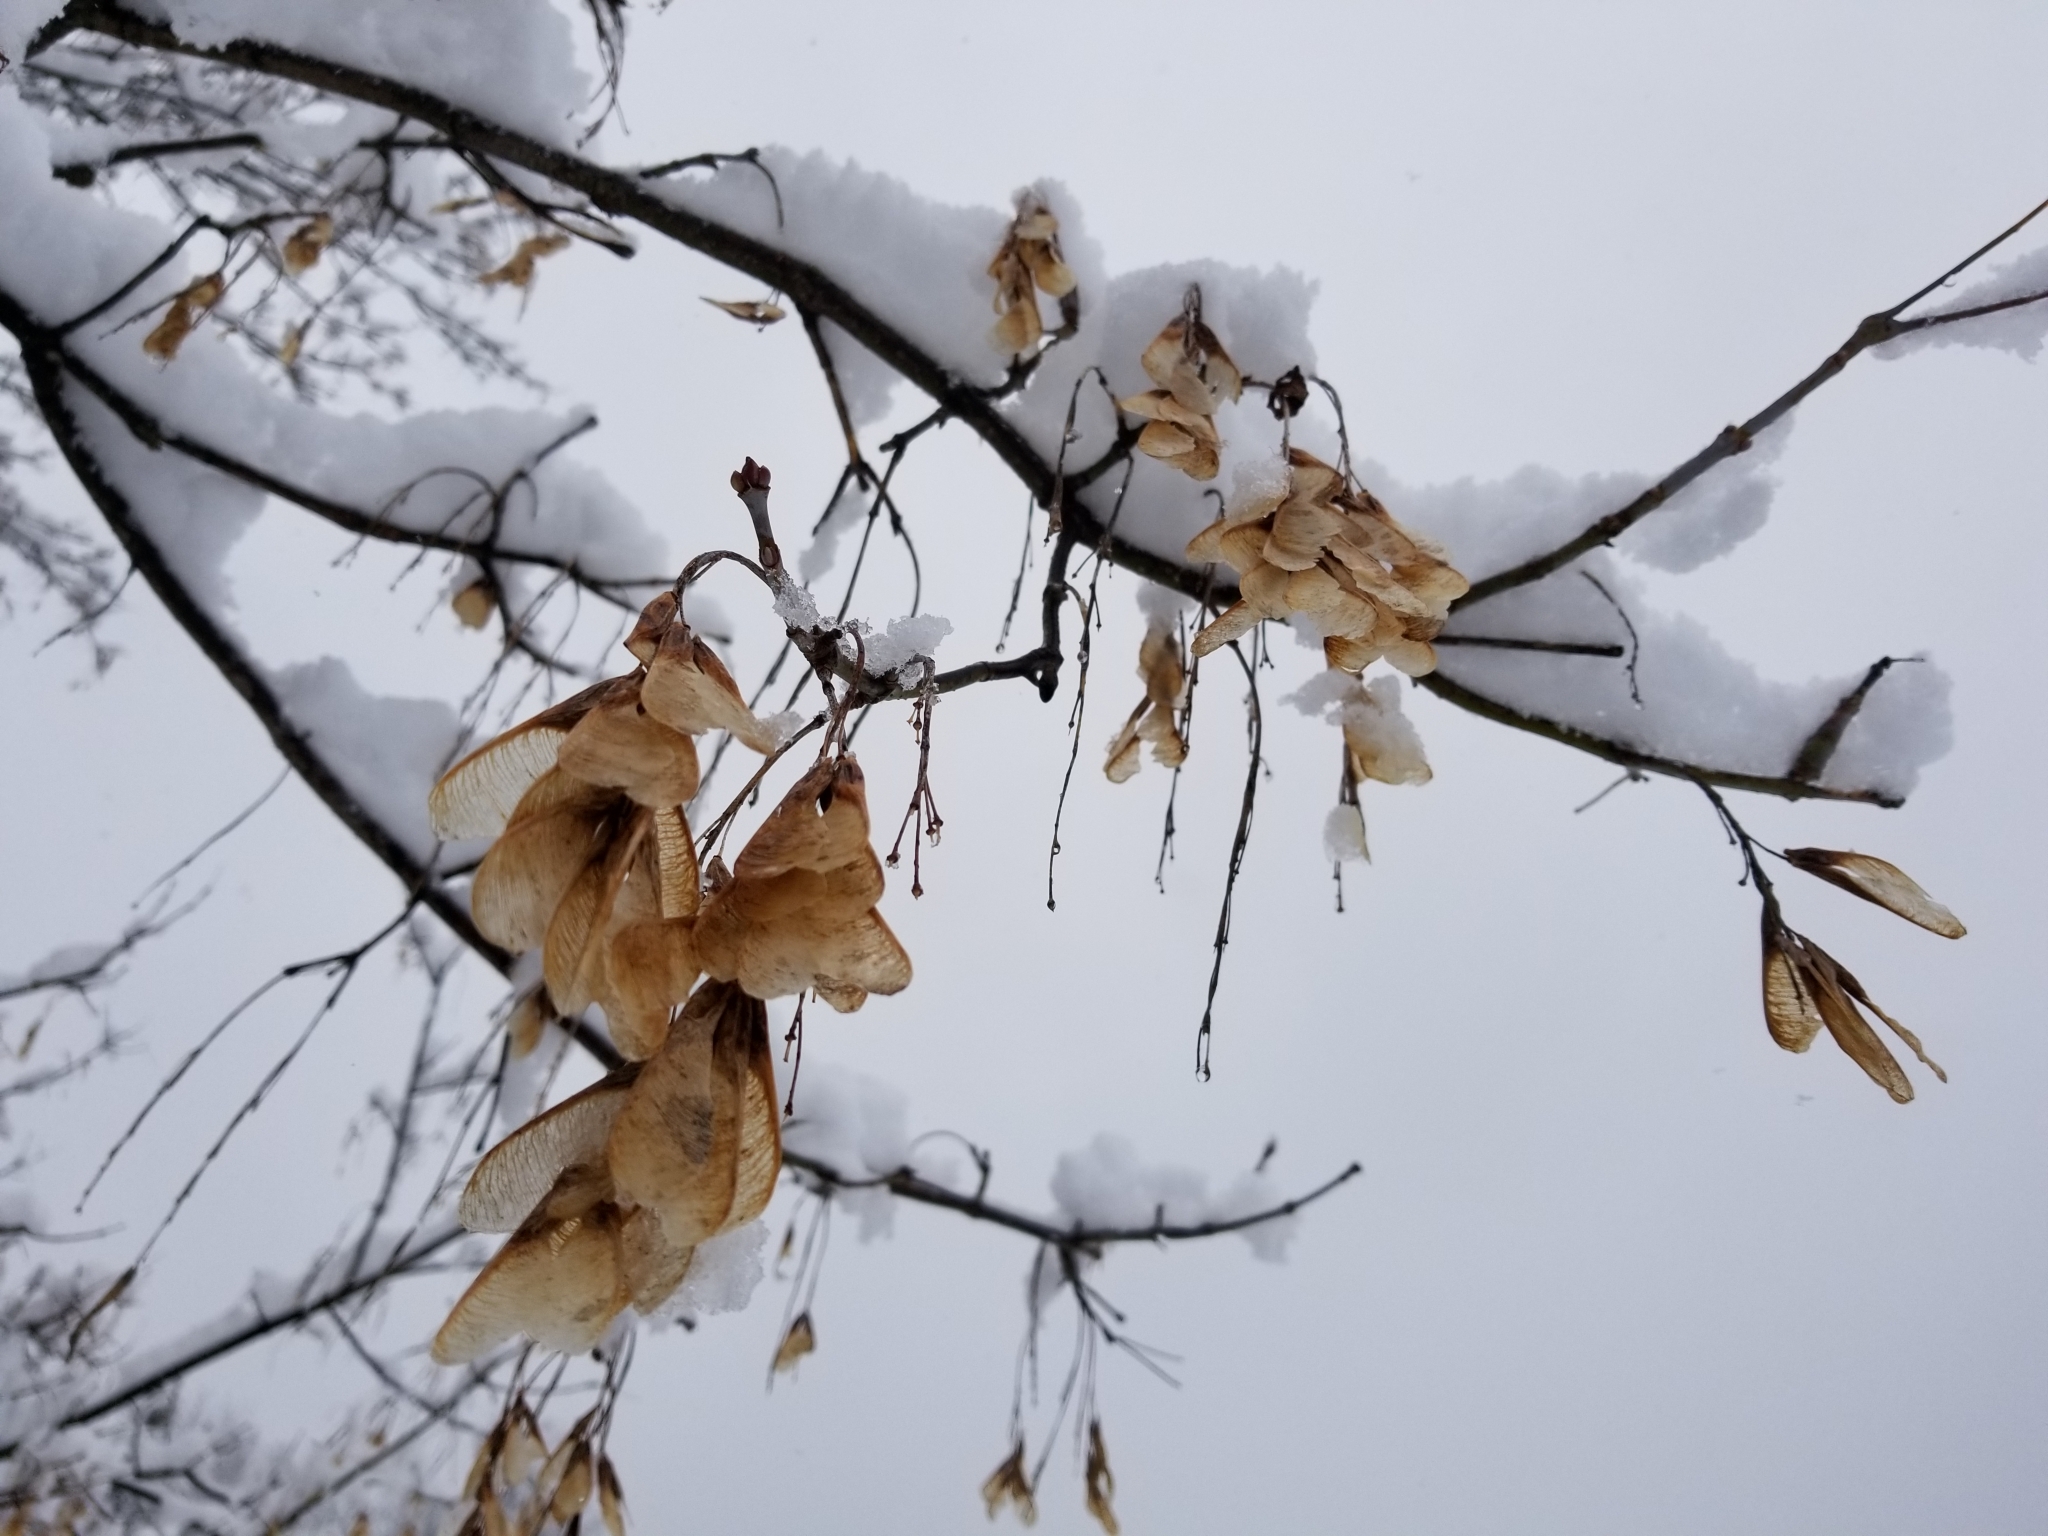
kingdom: Plantae
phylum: Tracheophyta
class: Magnoliopsida
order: Sapindales
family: Sapindaceae
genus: Acer
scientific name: Acer negundo
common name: Ashleaf maple
